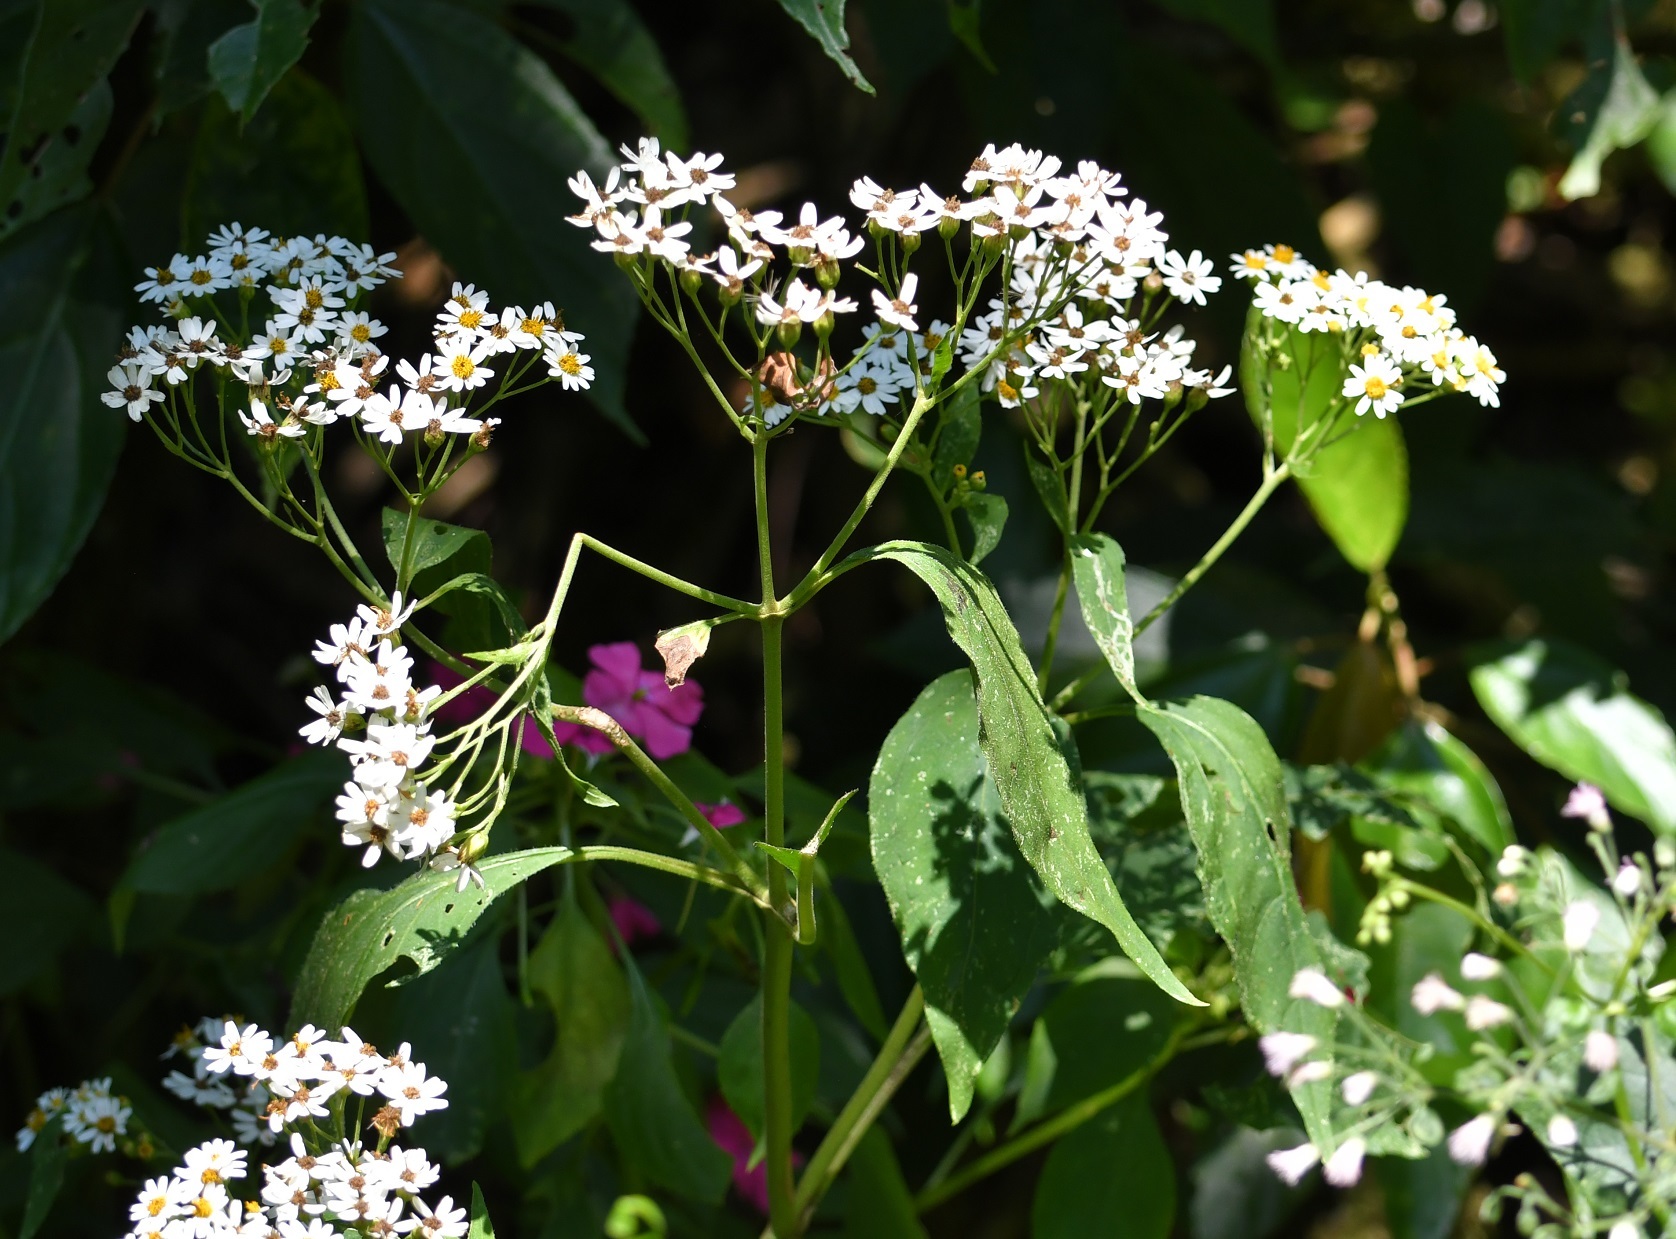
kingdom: Plantae
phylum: Tracheophyta
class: Magnoliopsida
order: Asterales
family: Asteraceae
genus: Schistocarpha
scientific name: Schistocarpha longiligula
